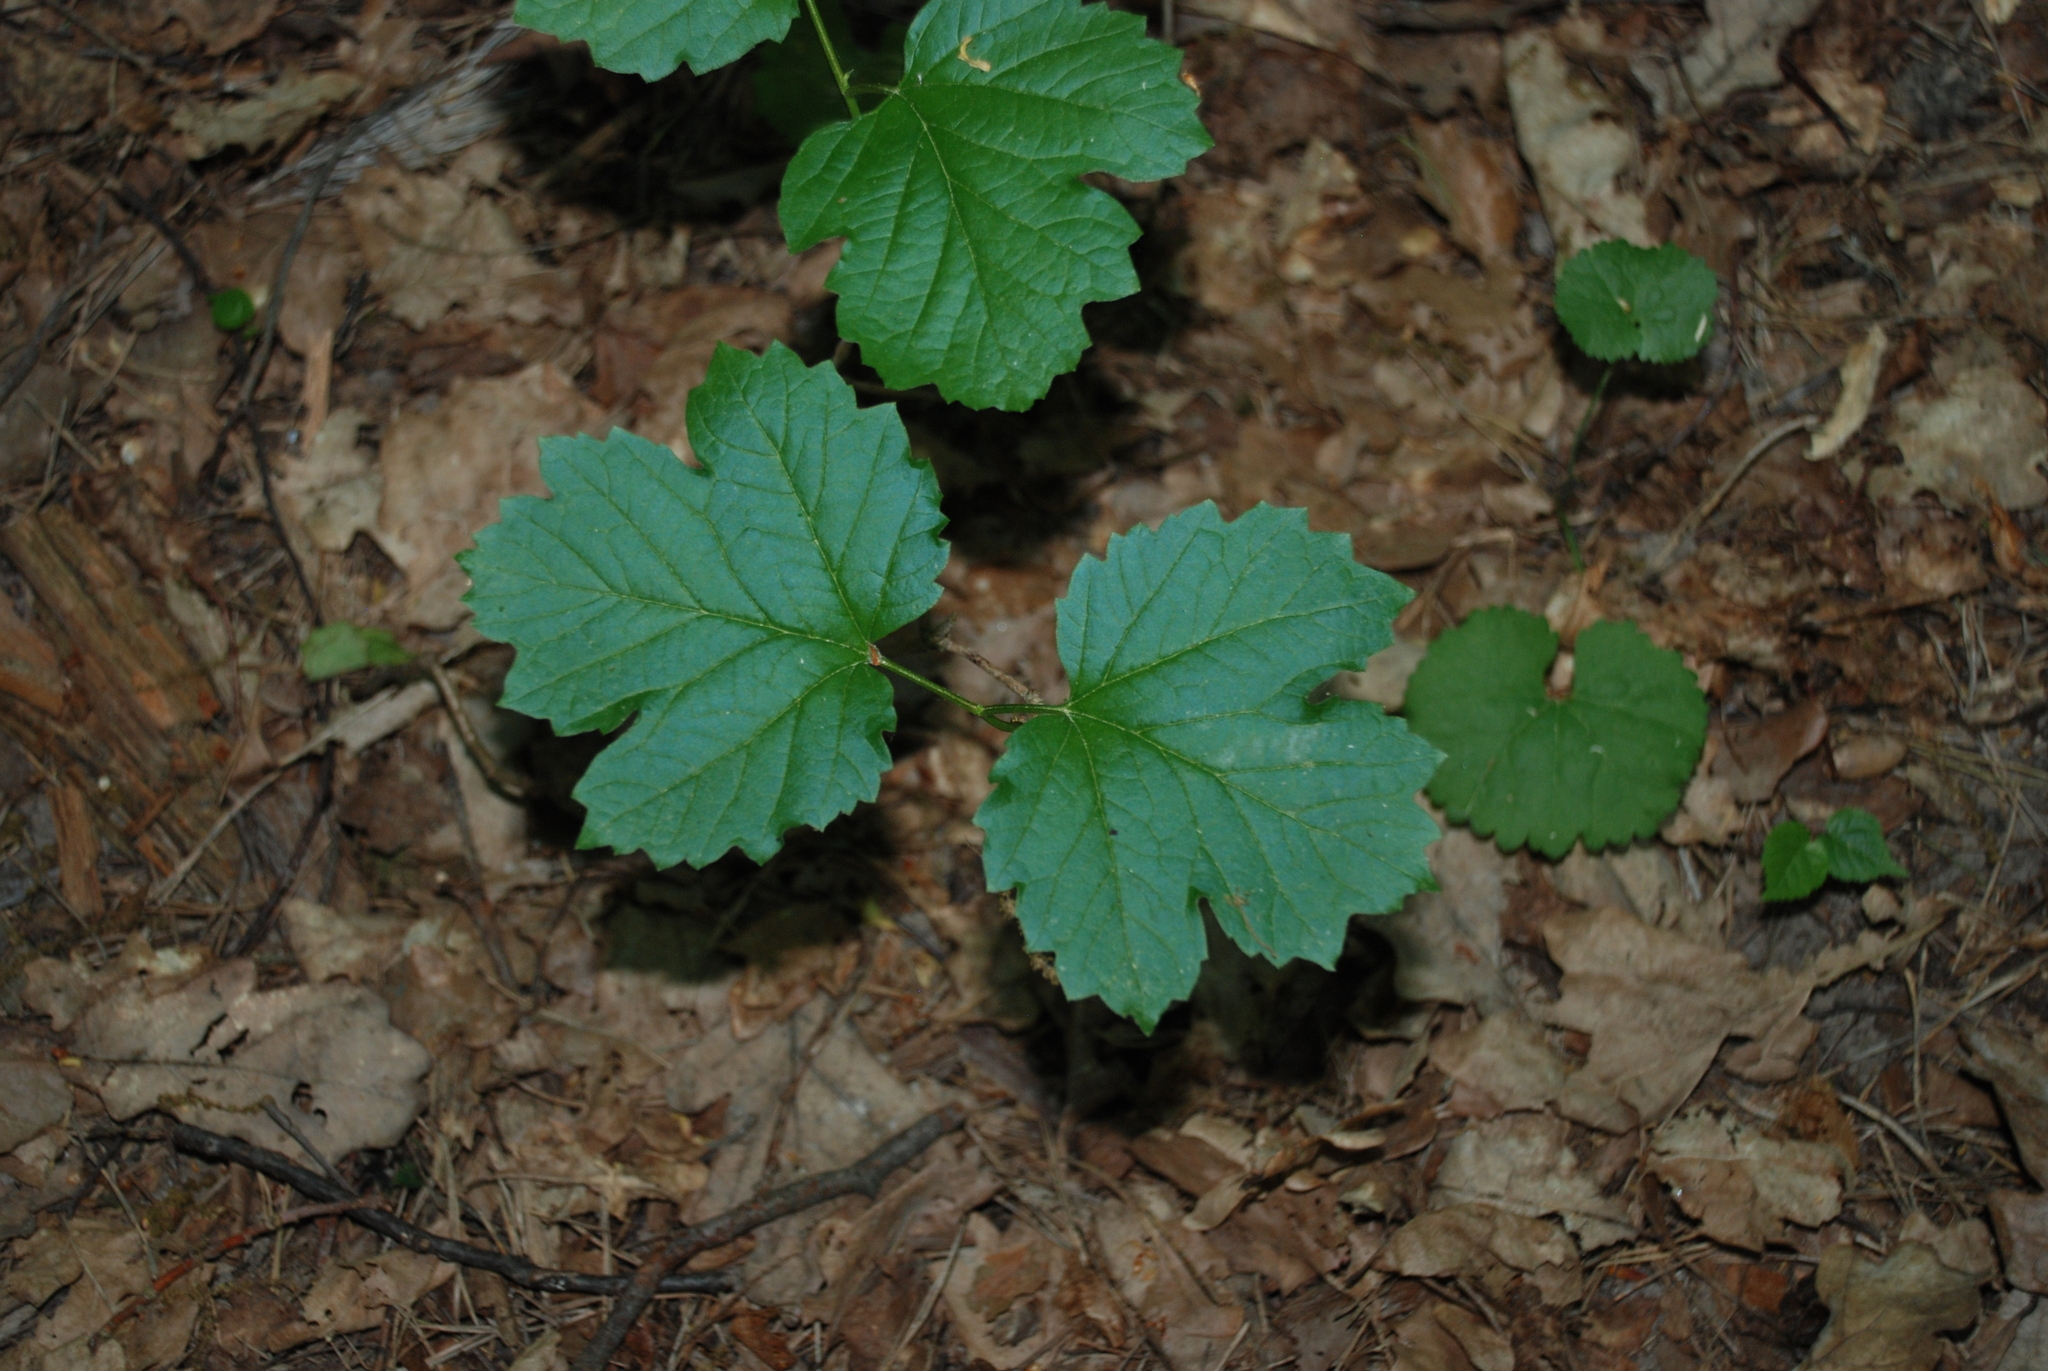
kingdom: Plantae
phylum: Tracheophyta
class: Magnoliopsida
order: Dipsacales
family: Viburnaceae
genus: Viburnum
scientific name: Viburnum opulus
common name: Guelder-rose
